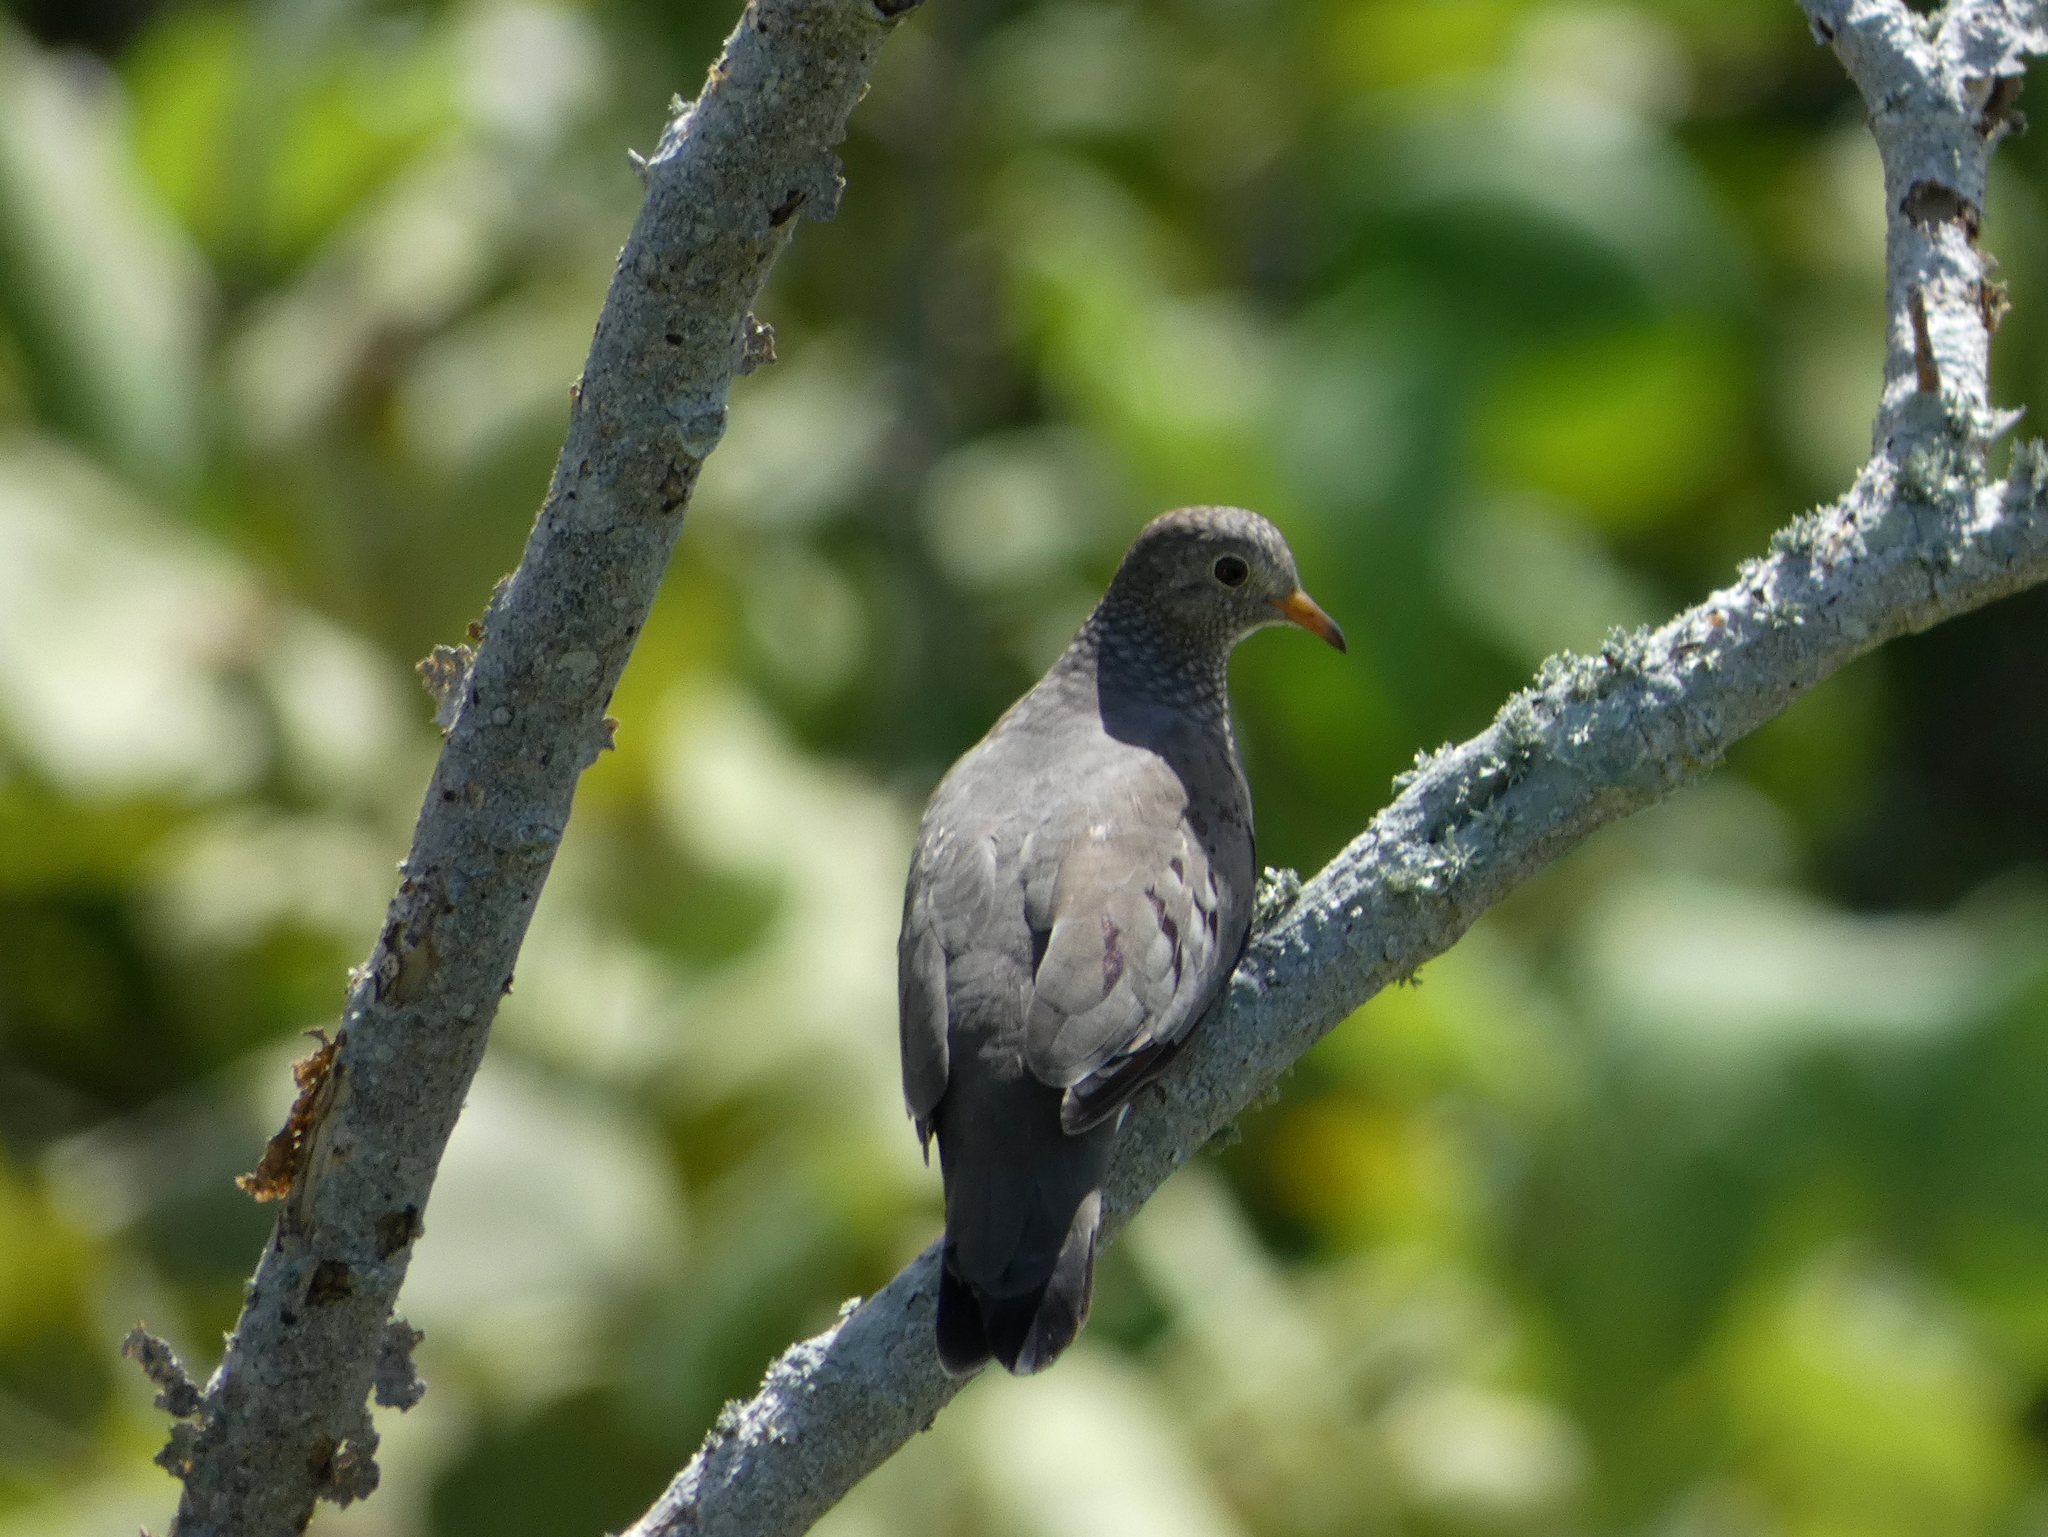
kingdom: Animalia
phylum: Chordata
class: Aves
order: Columbiformes
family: Columbidae
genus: Columbina
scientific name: Columbina passerina
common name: Common ground-dove
